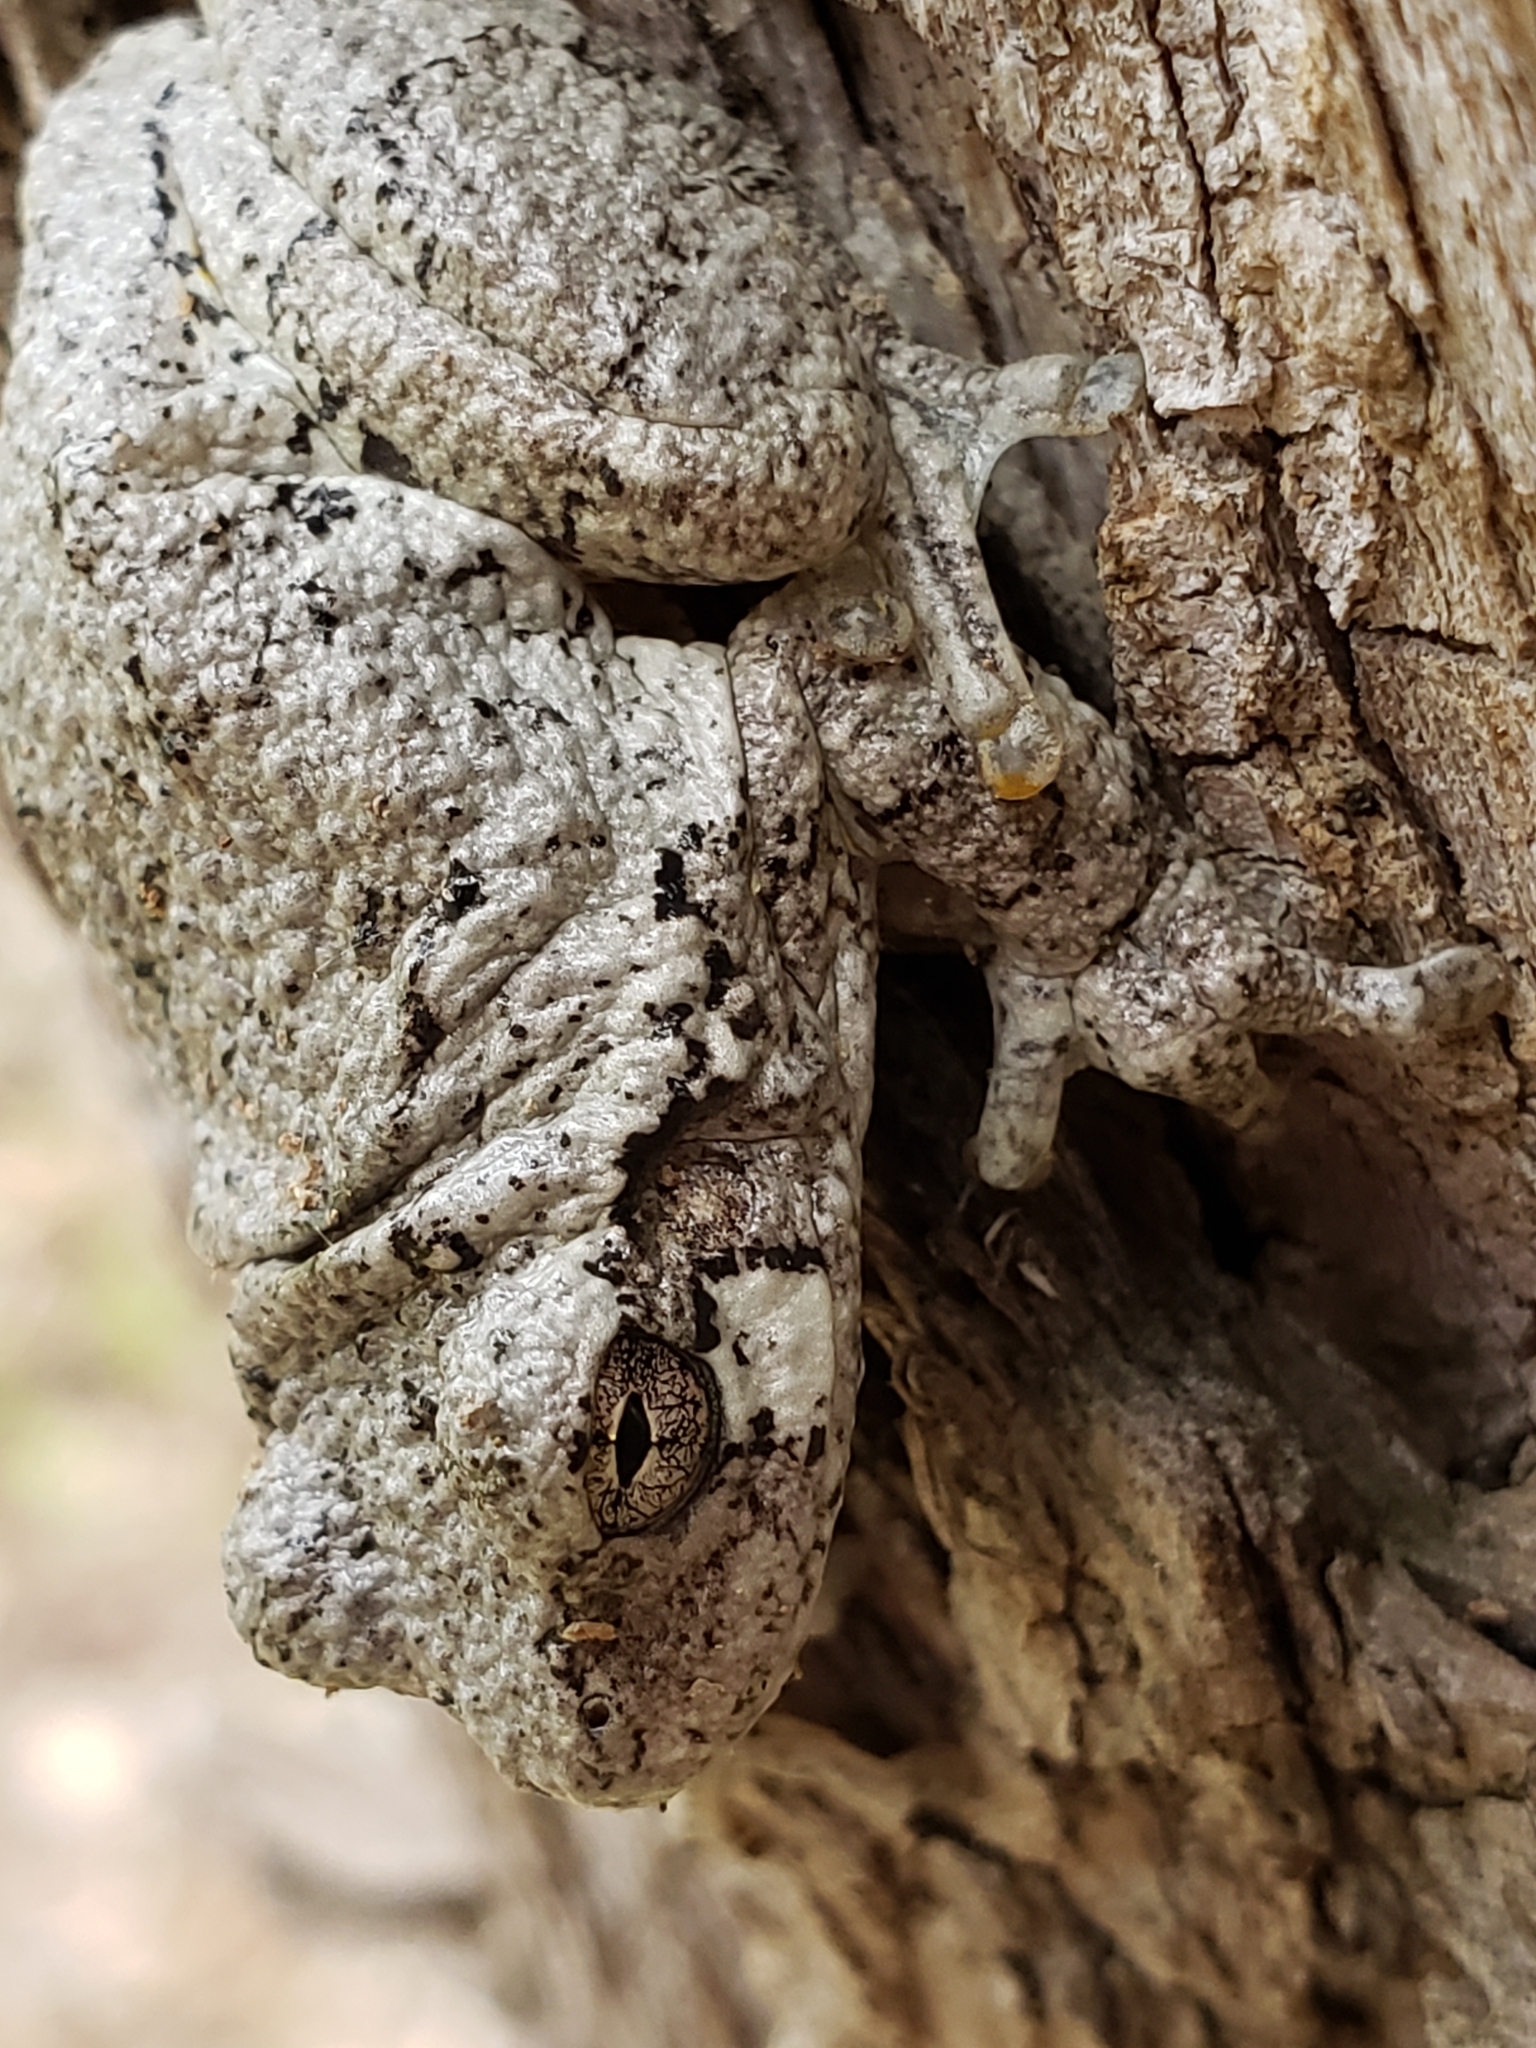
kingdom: Animalia
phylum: Chordata
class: Amphibia
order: Anura
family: Hylidae
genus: Hyla
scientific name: Hyla
